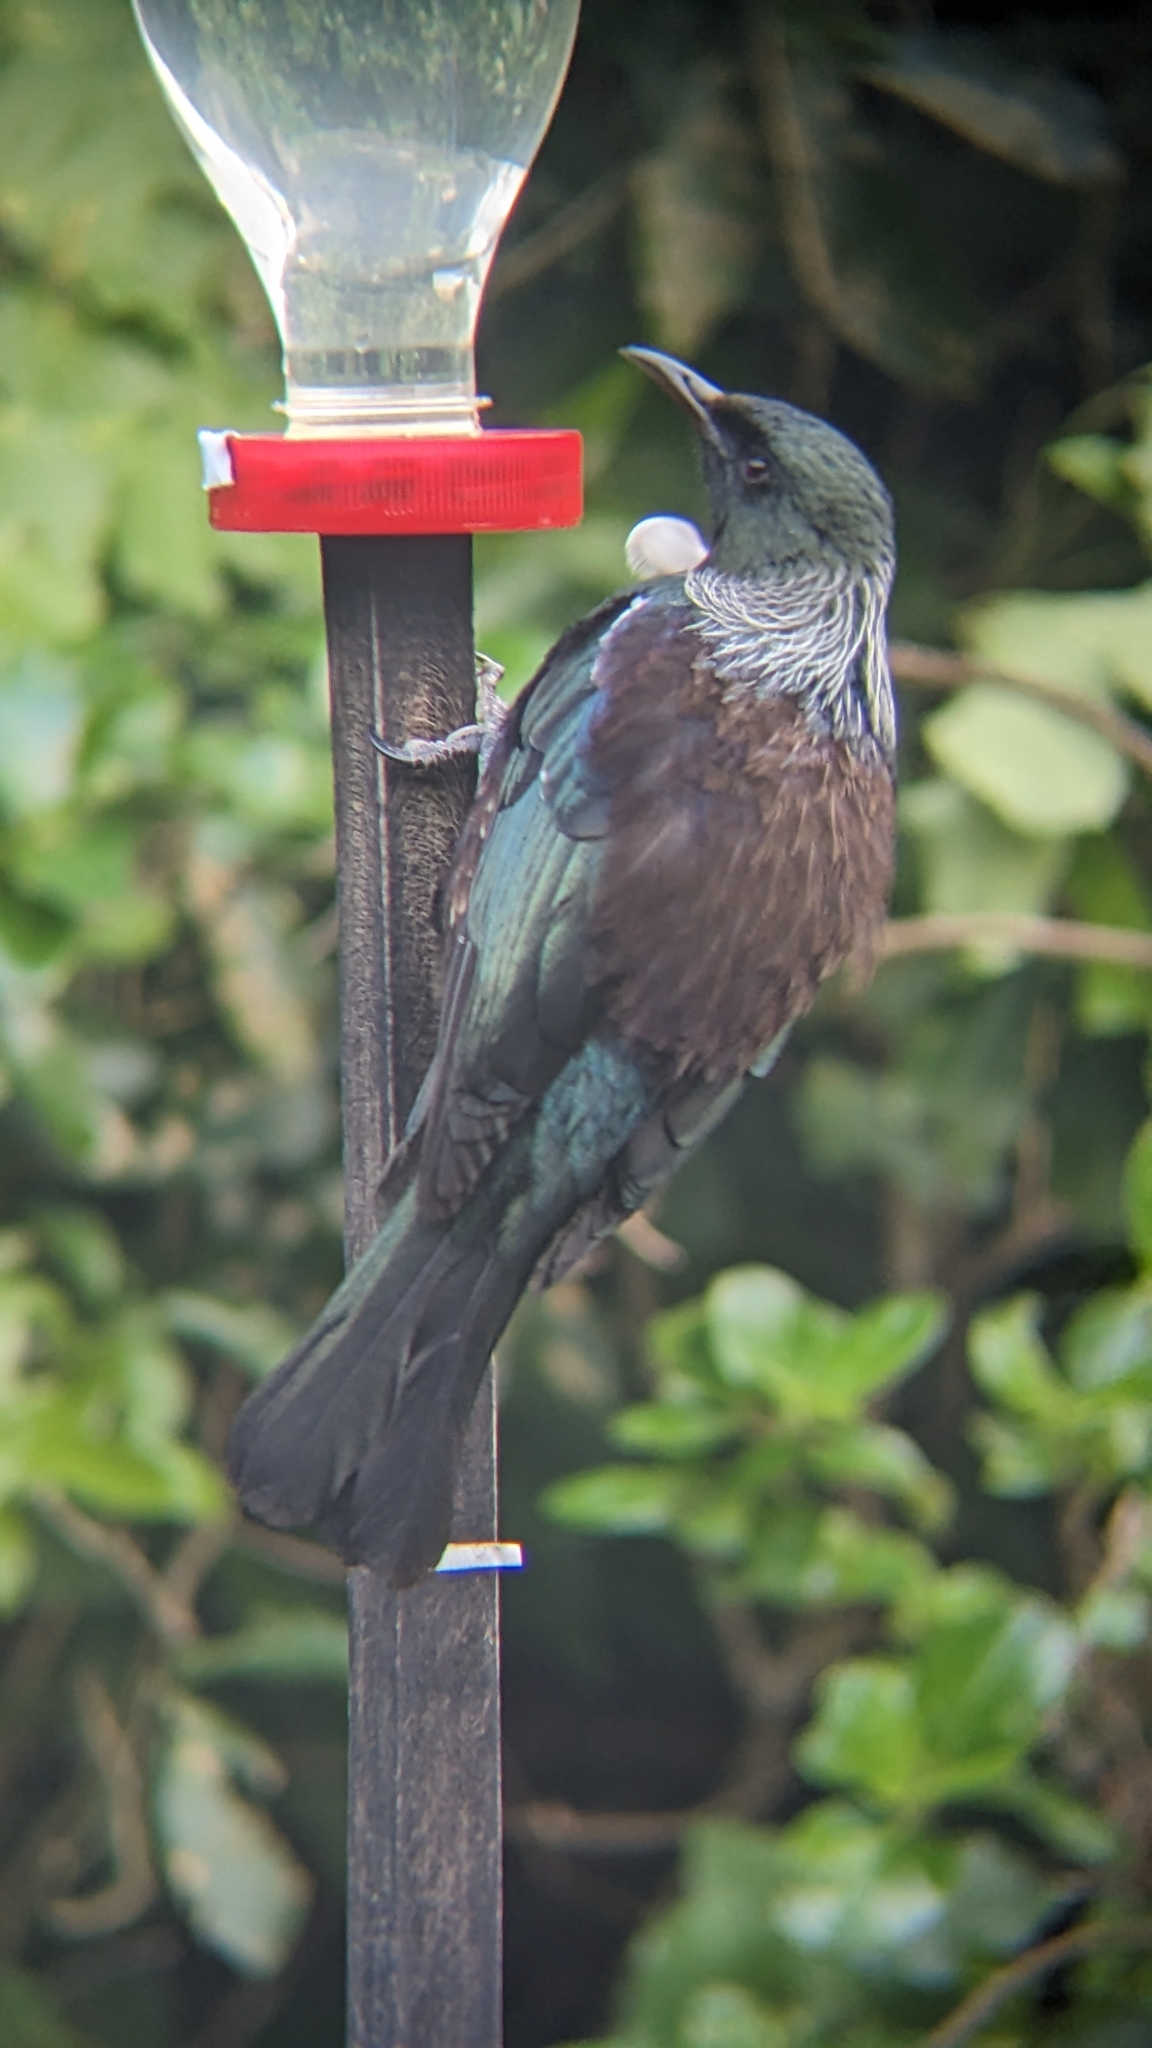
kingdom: Animalia
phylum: Chordata
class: Aves
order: Passeriformes
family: Meliphagidae
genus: Prosthemadera
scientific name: Prosthemadera novaeseelandiae
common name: Tui
